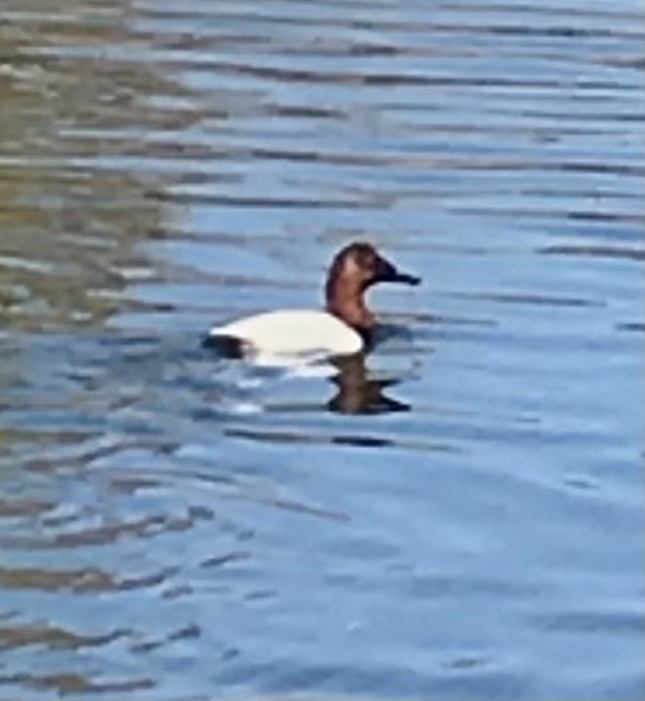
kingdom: Animalia
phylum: Chordata
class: Aves
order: Anseriformes
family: Anatidae
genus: Aythya
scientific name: Aythya valisineria
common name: Canvasback
